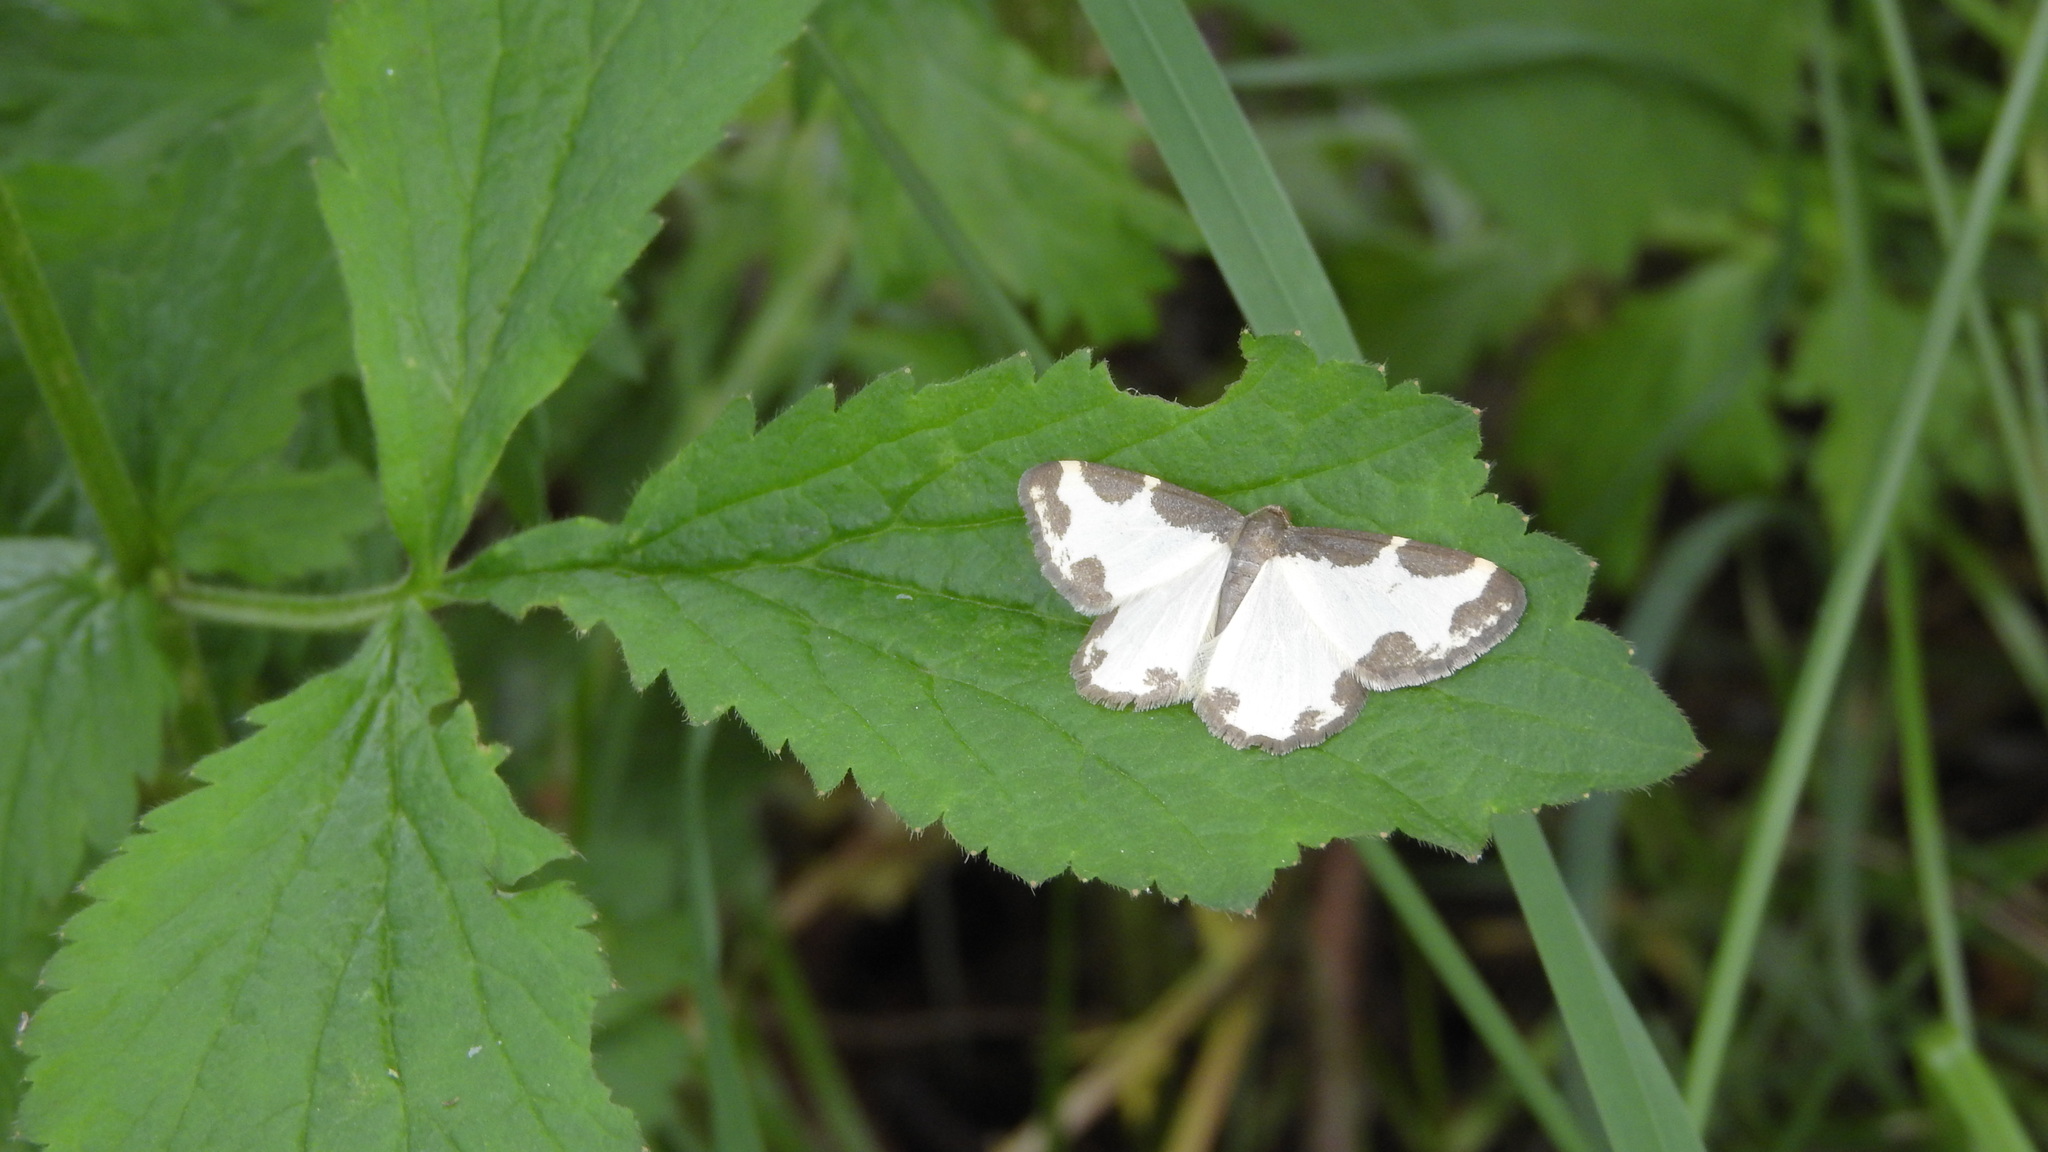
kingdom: Animalia
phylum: Arthropoda
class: Insecta
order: Lepidoptera
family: Geometridae
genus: Lomaspilis
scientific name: Lomaspilis marginata
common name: Clouded border
